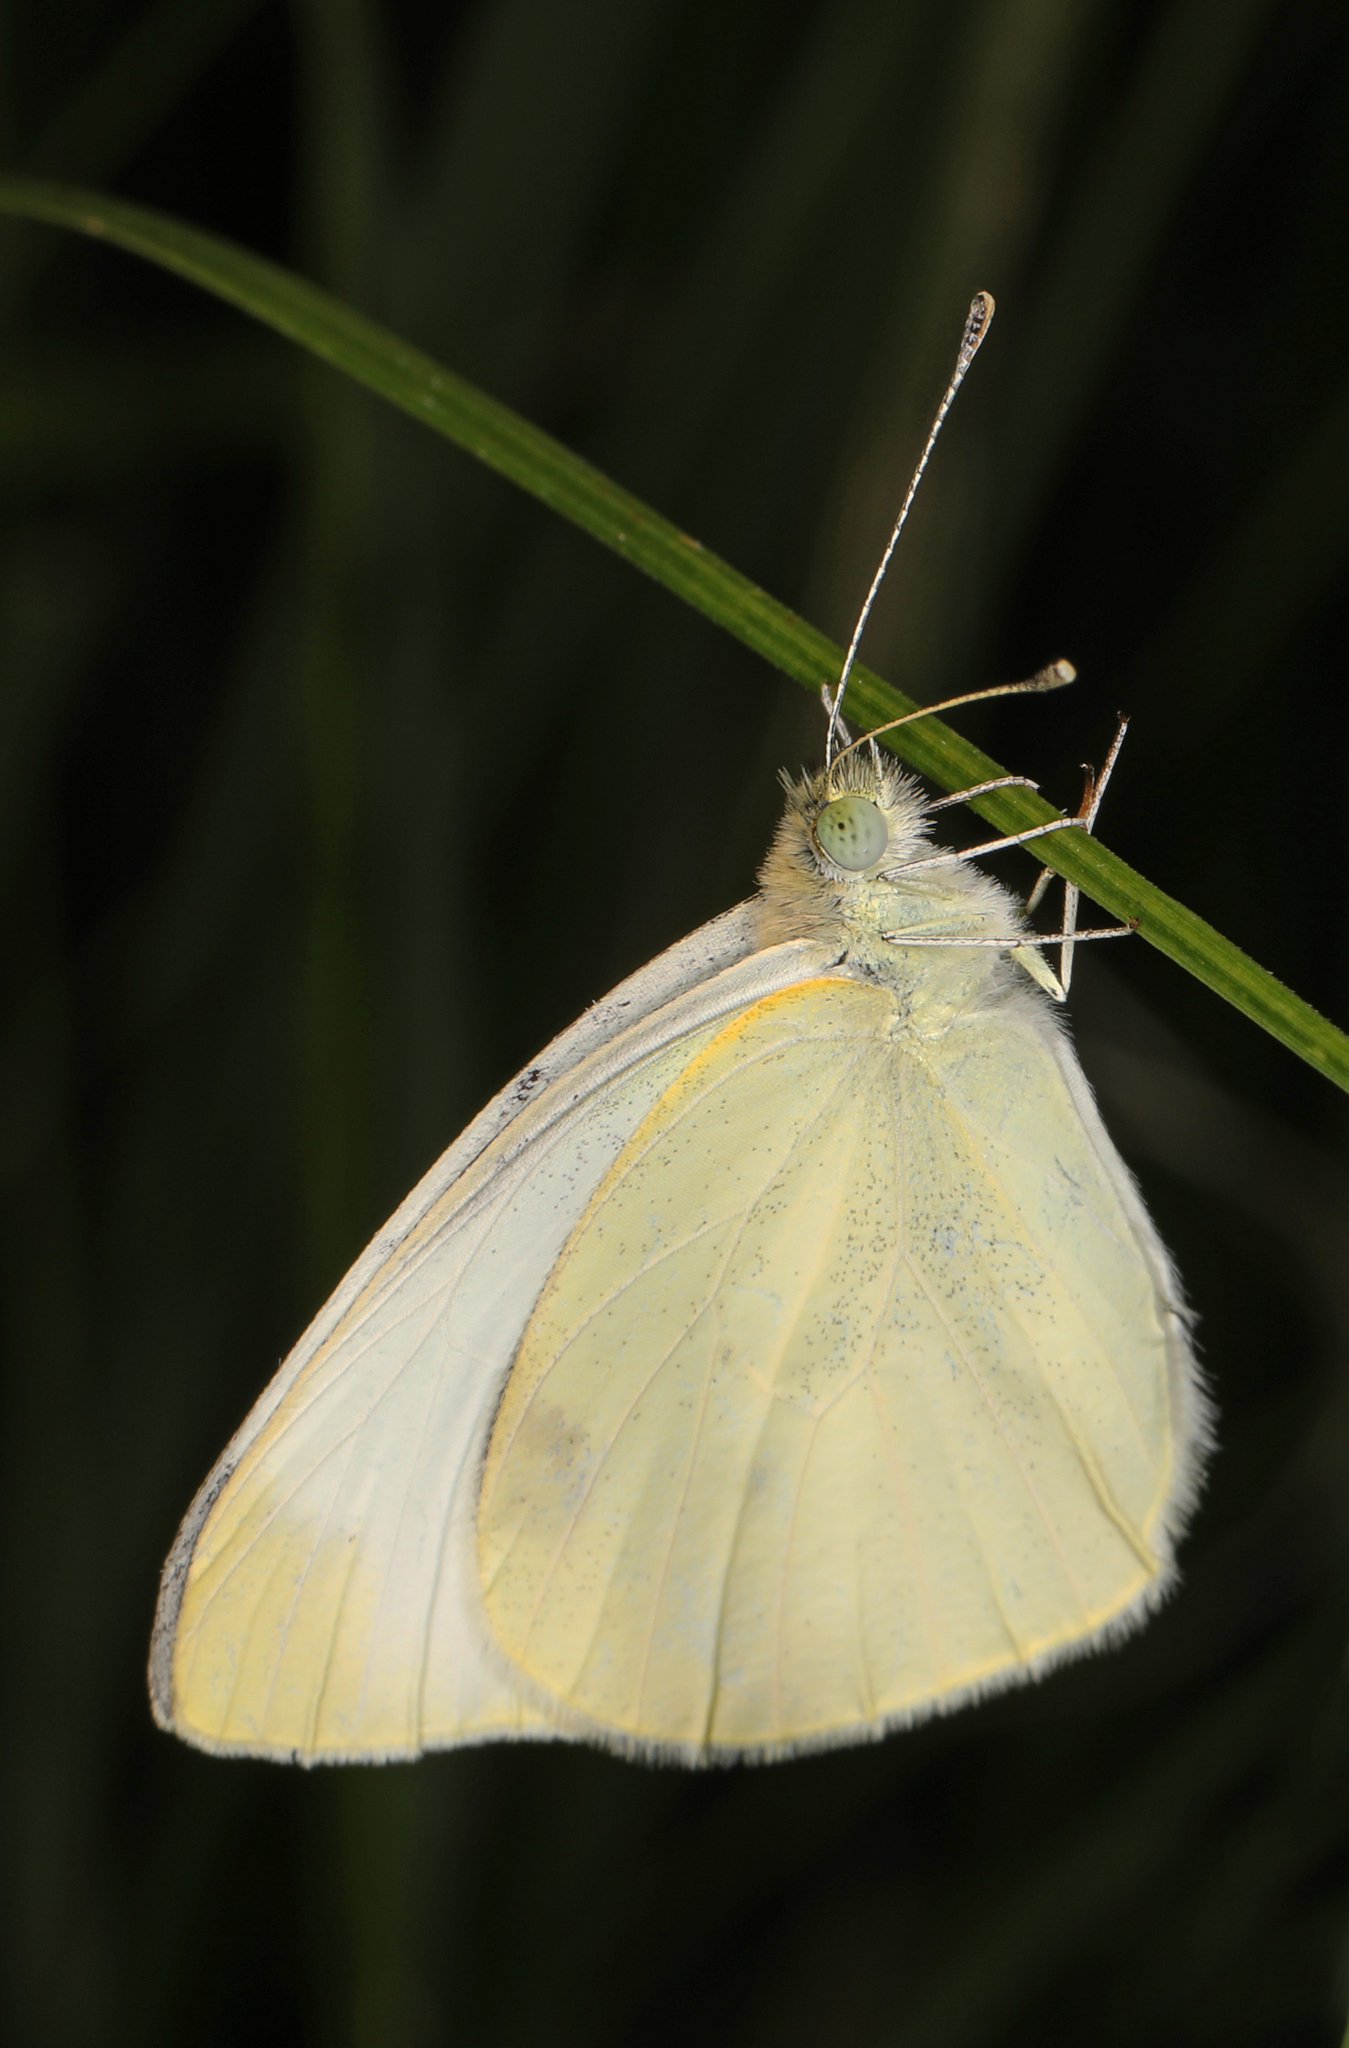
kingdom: Animalia
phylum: Arthropoda
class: Insecta
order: Lepidoptera
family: Pieridae
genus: Pieris
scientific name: Pieris rapae
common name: Small white
